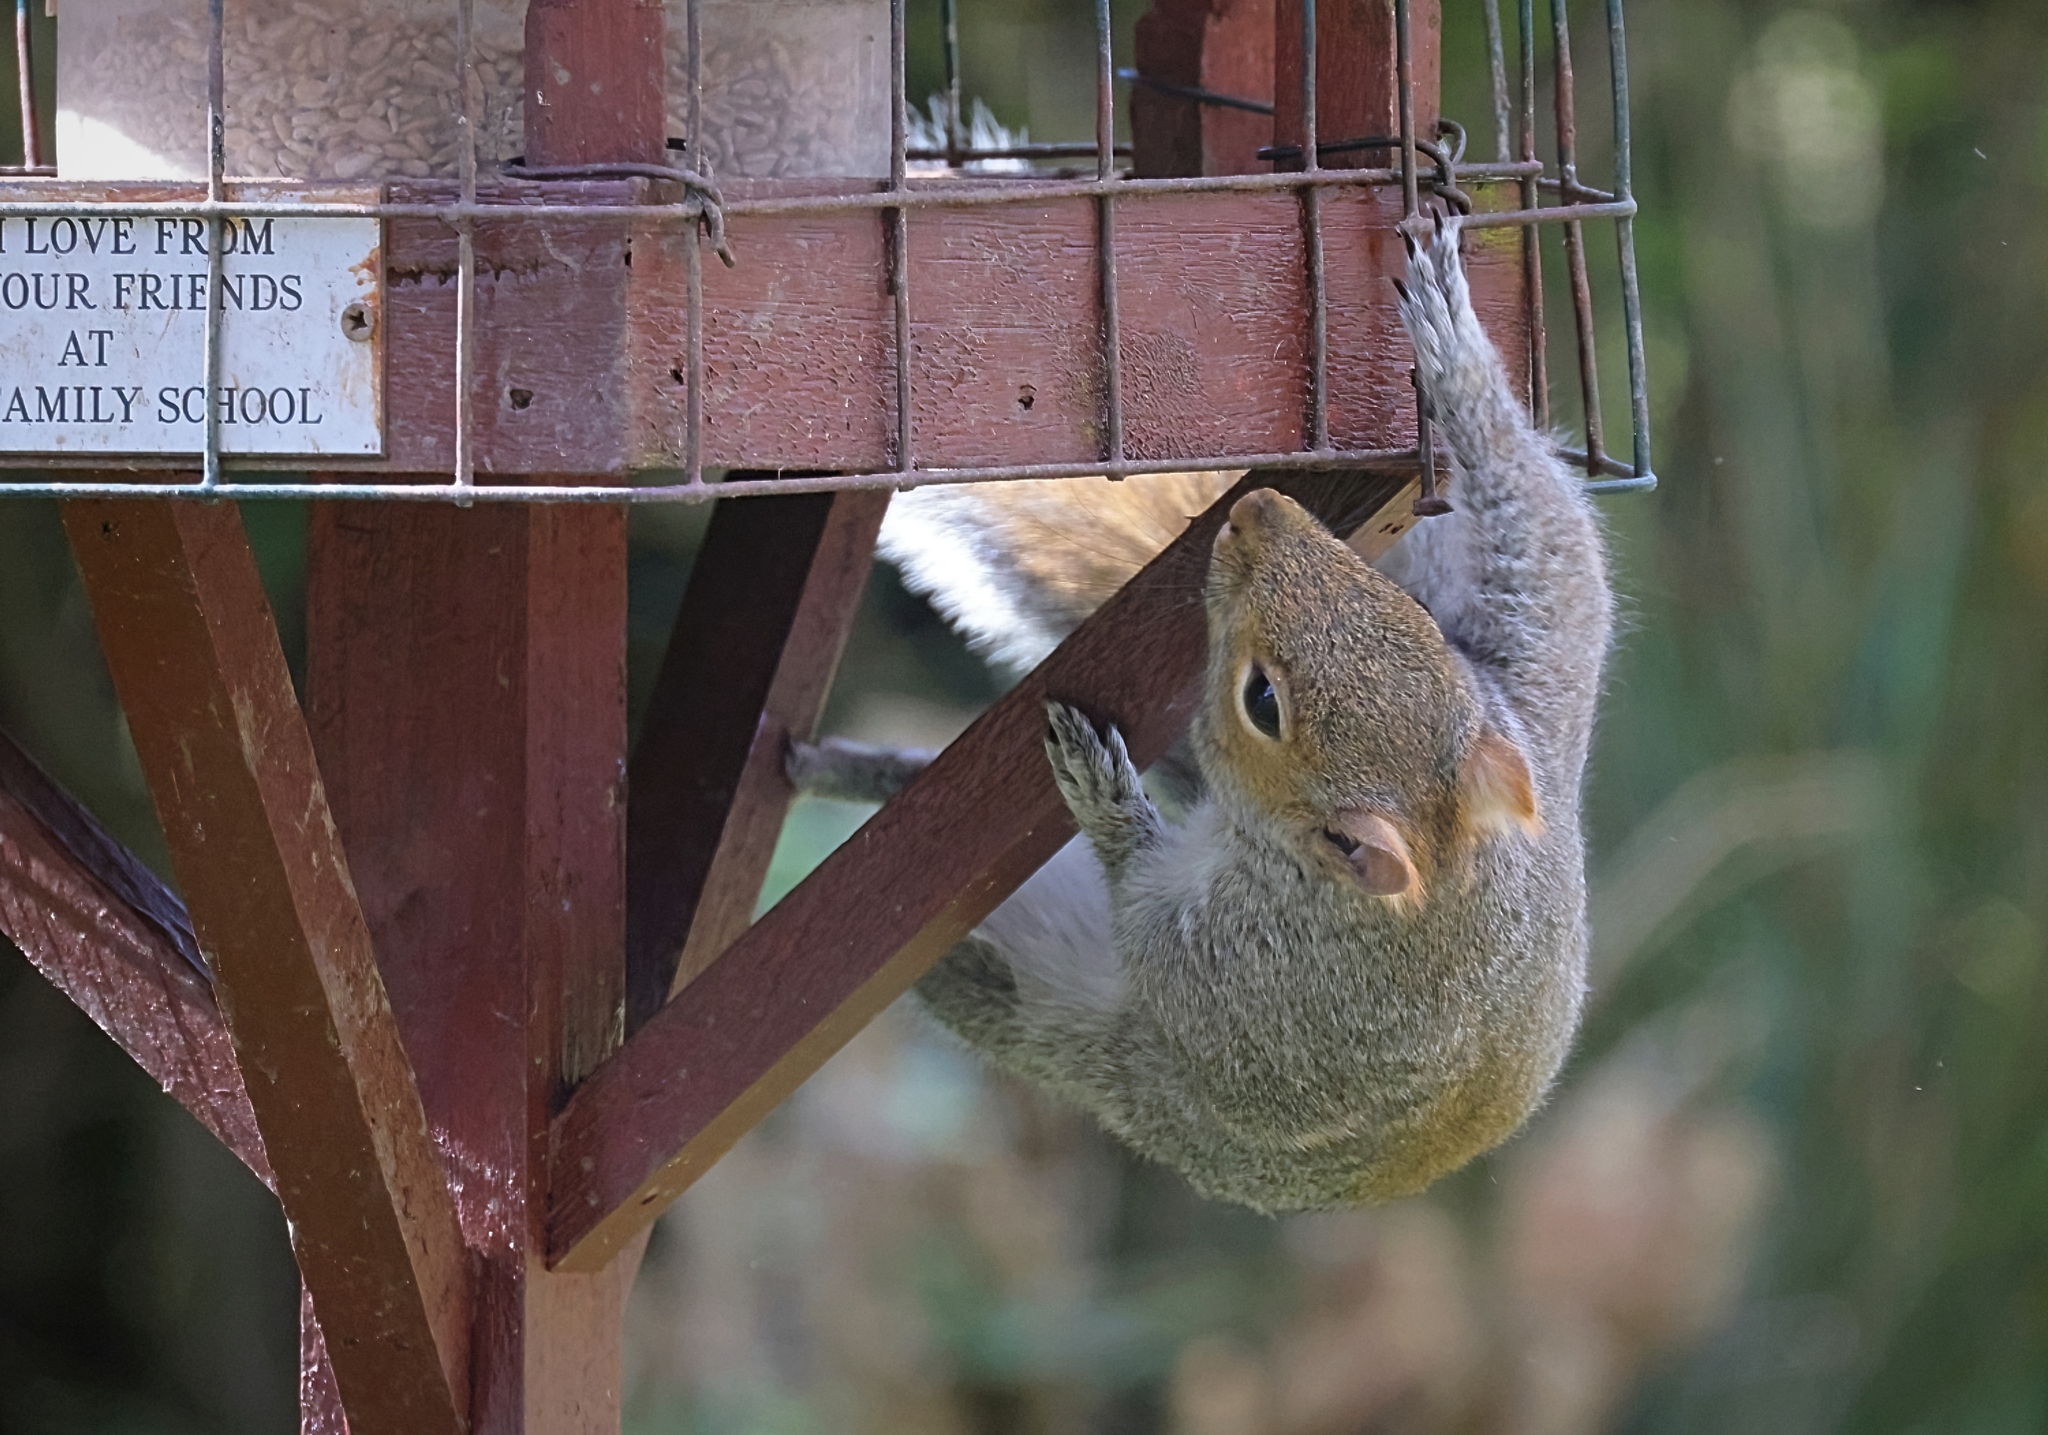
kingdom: Animalia
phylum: Chordata
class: Mammalia
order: Rodentia
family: Sciuridae
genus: Sciurus
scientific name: Sciurus carolinensis
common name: Eastern gray squirrel
